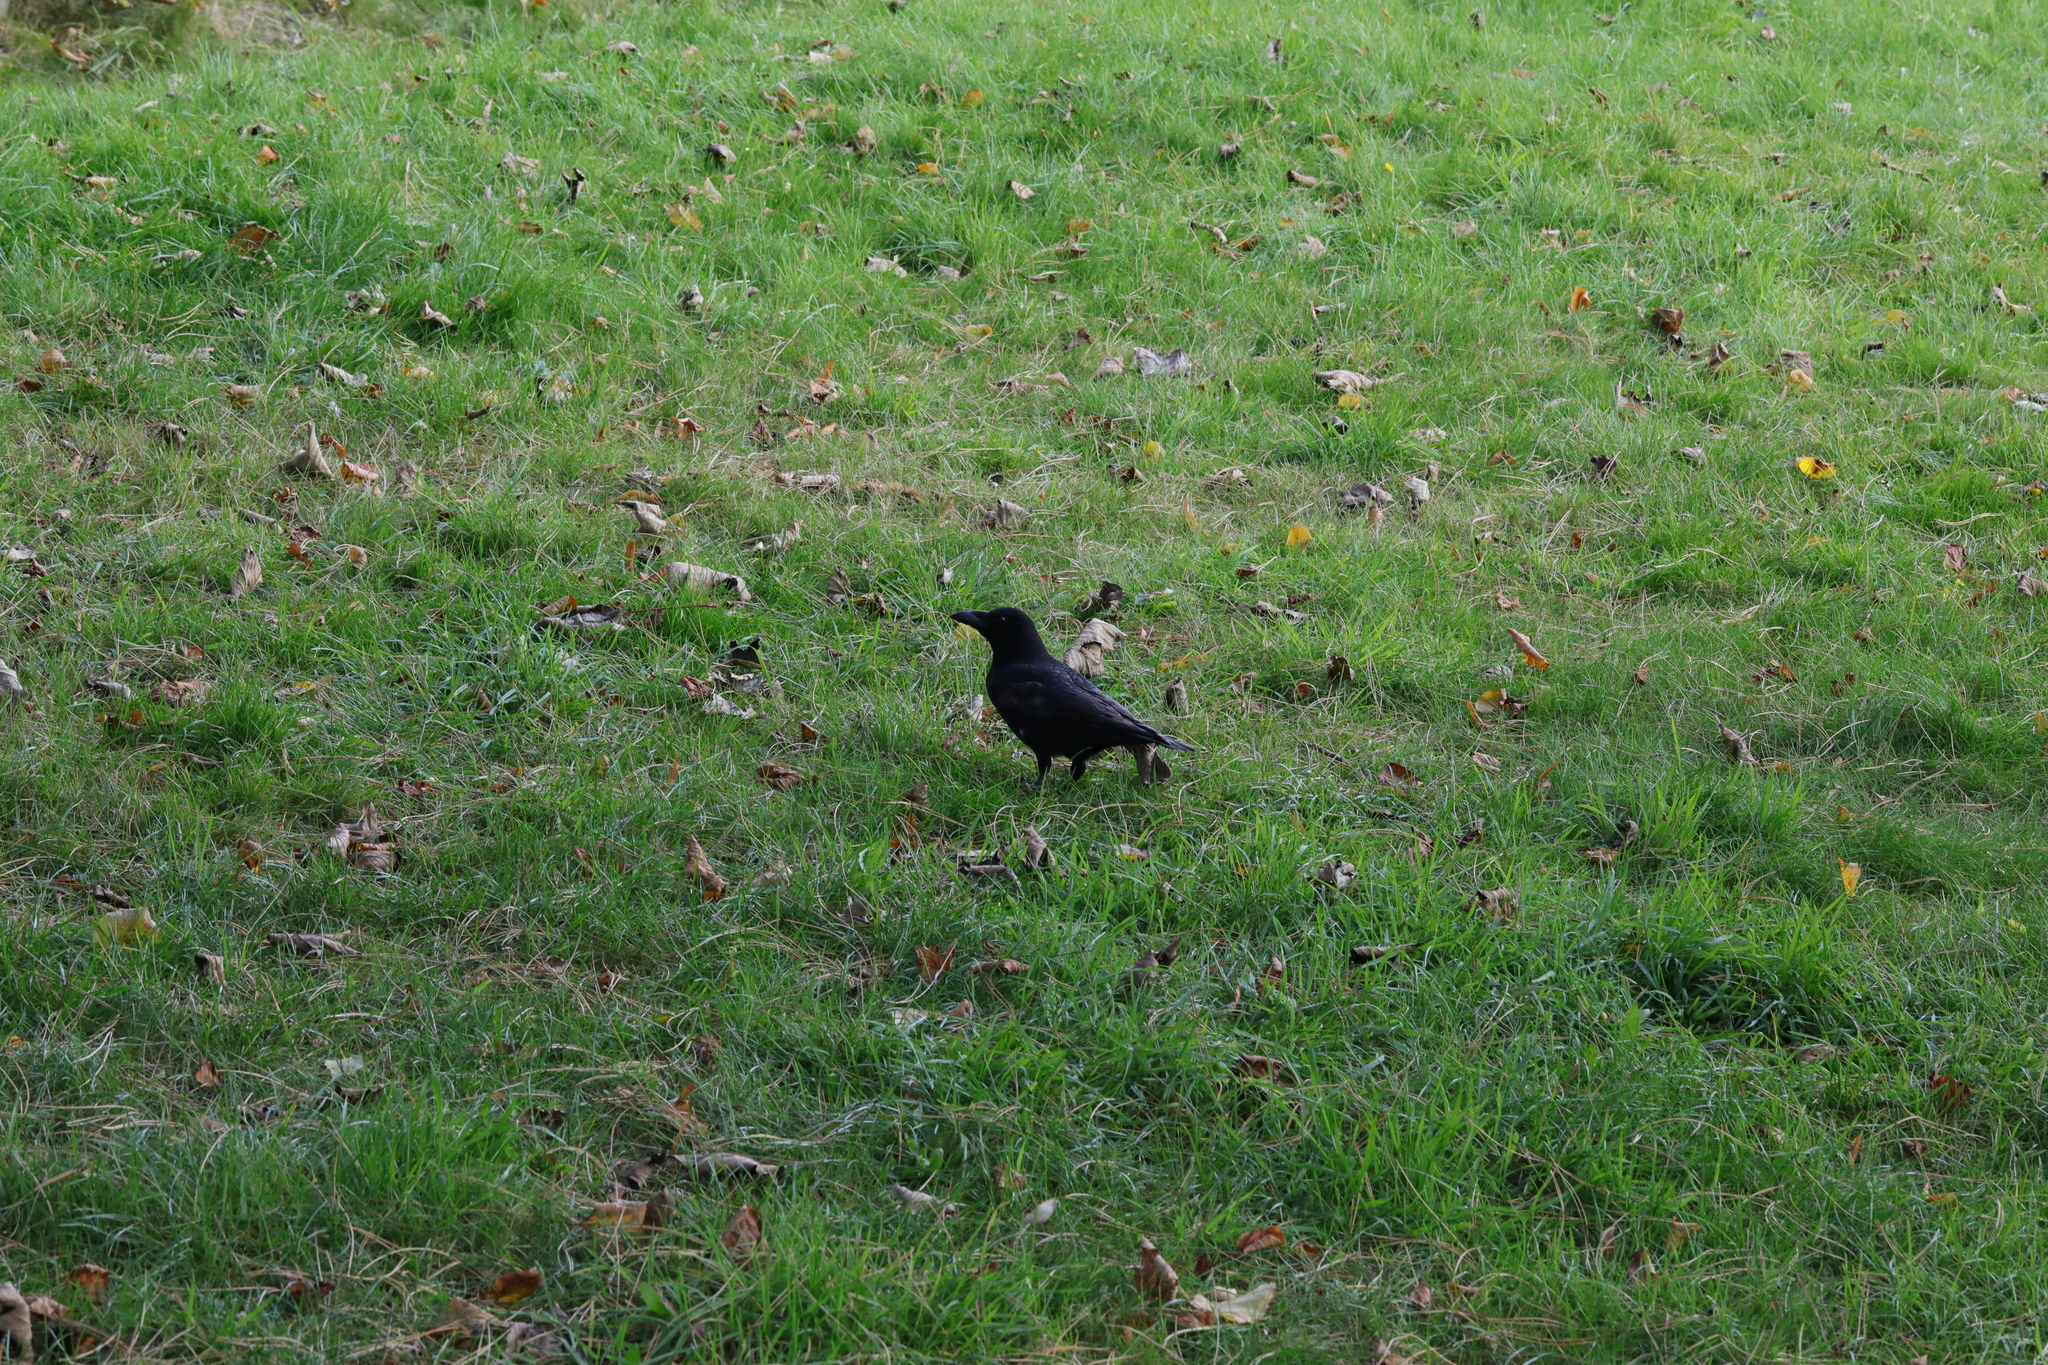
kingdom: Animalia
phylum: Chordata
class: Aves
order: Passeriformes
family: Corvidae
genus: Corvus
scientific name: Corvus corone
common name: Carrion crow
